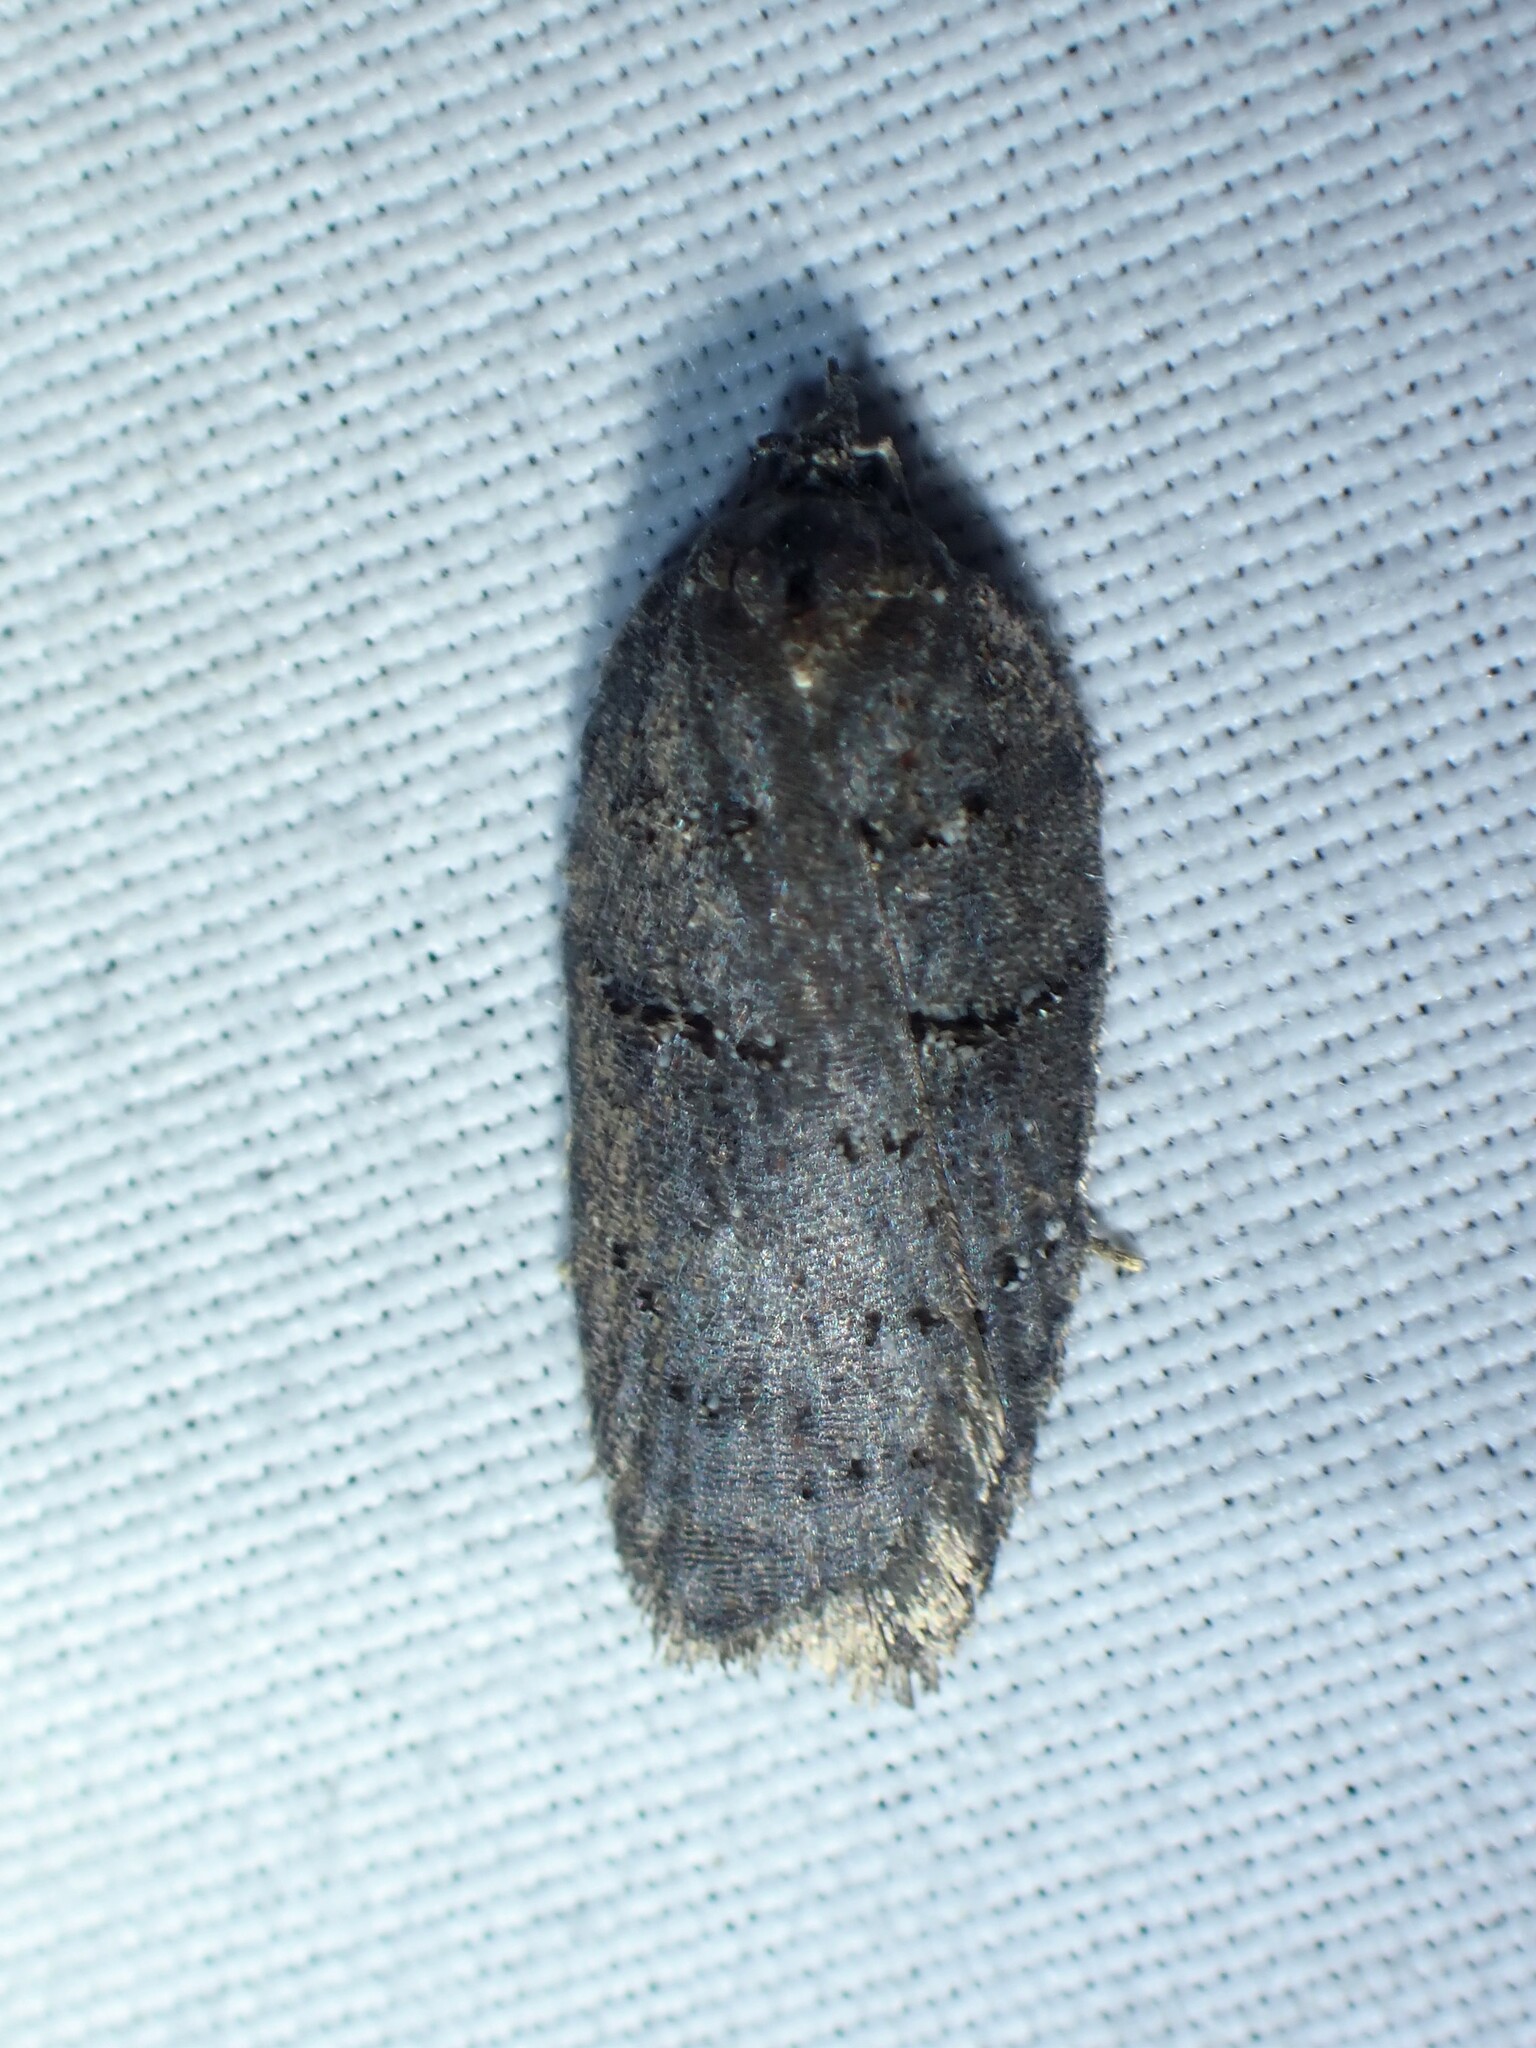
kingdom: Animalia
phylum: Arthropoda
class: Insecta
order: Lepidoptera
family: Tortricidae
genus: Acleris
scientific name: Acleris caliginosana
